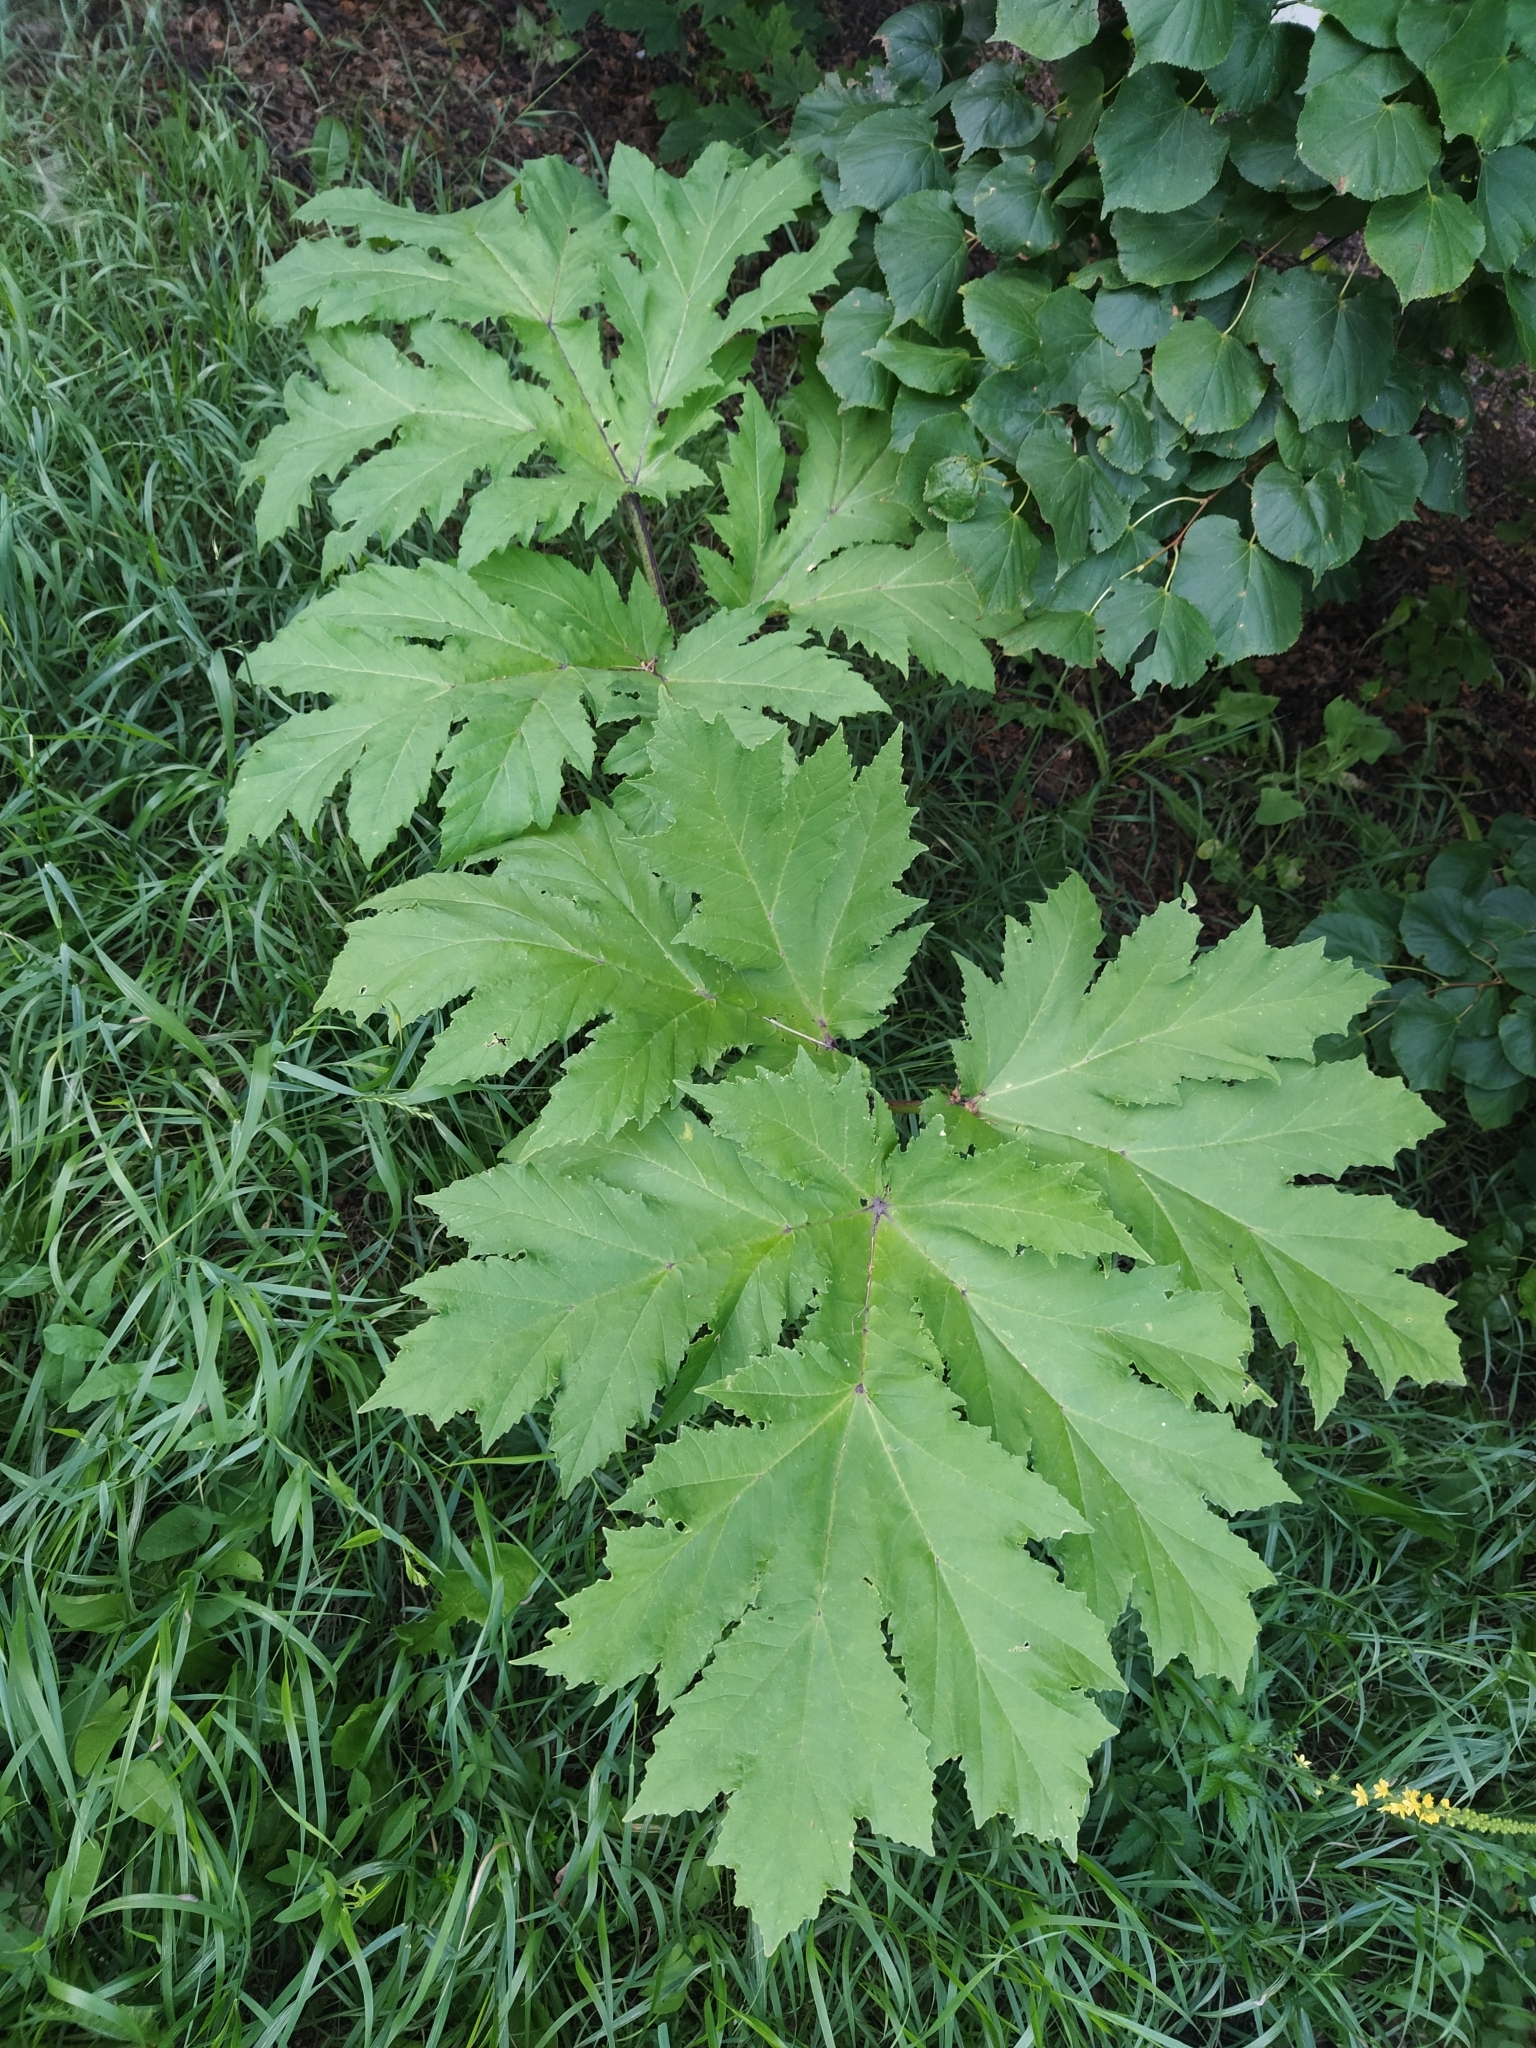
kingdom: Plantae
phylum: Tracheophyta
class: Magnoliopsida
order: Apiales
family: Apiaceae
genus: Heracleum
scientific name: Heracleum sosnowskyi
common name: Sosnowsky's hogweed
